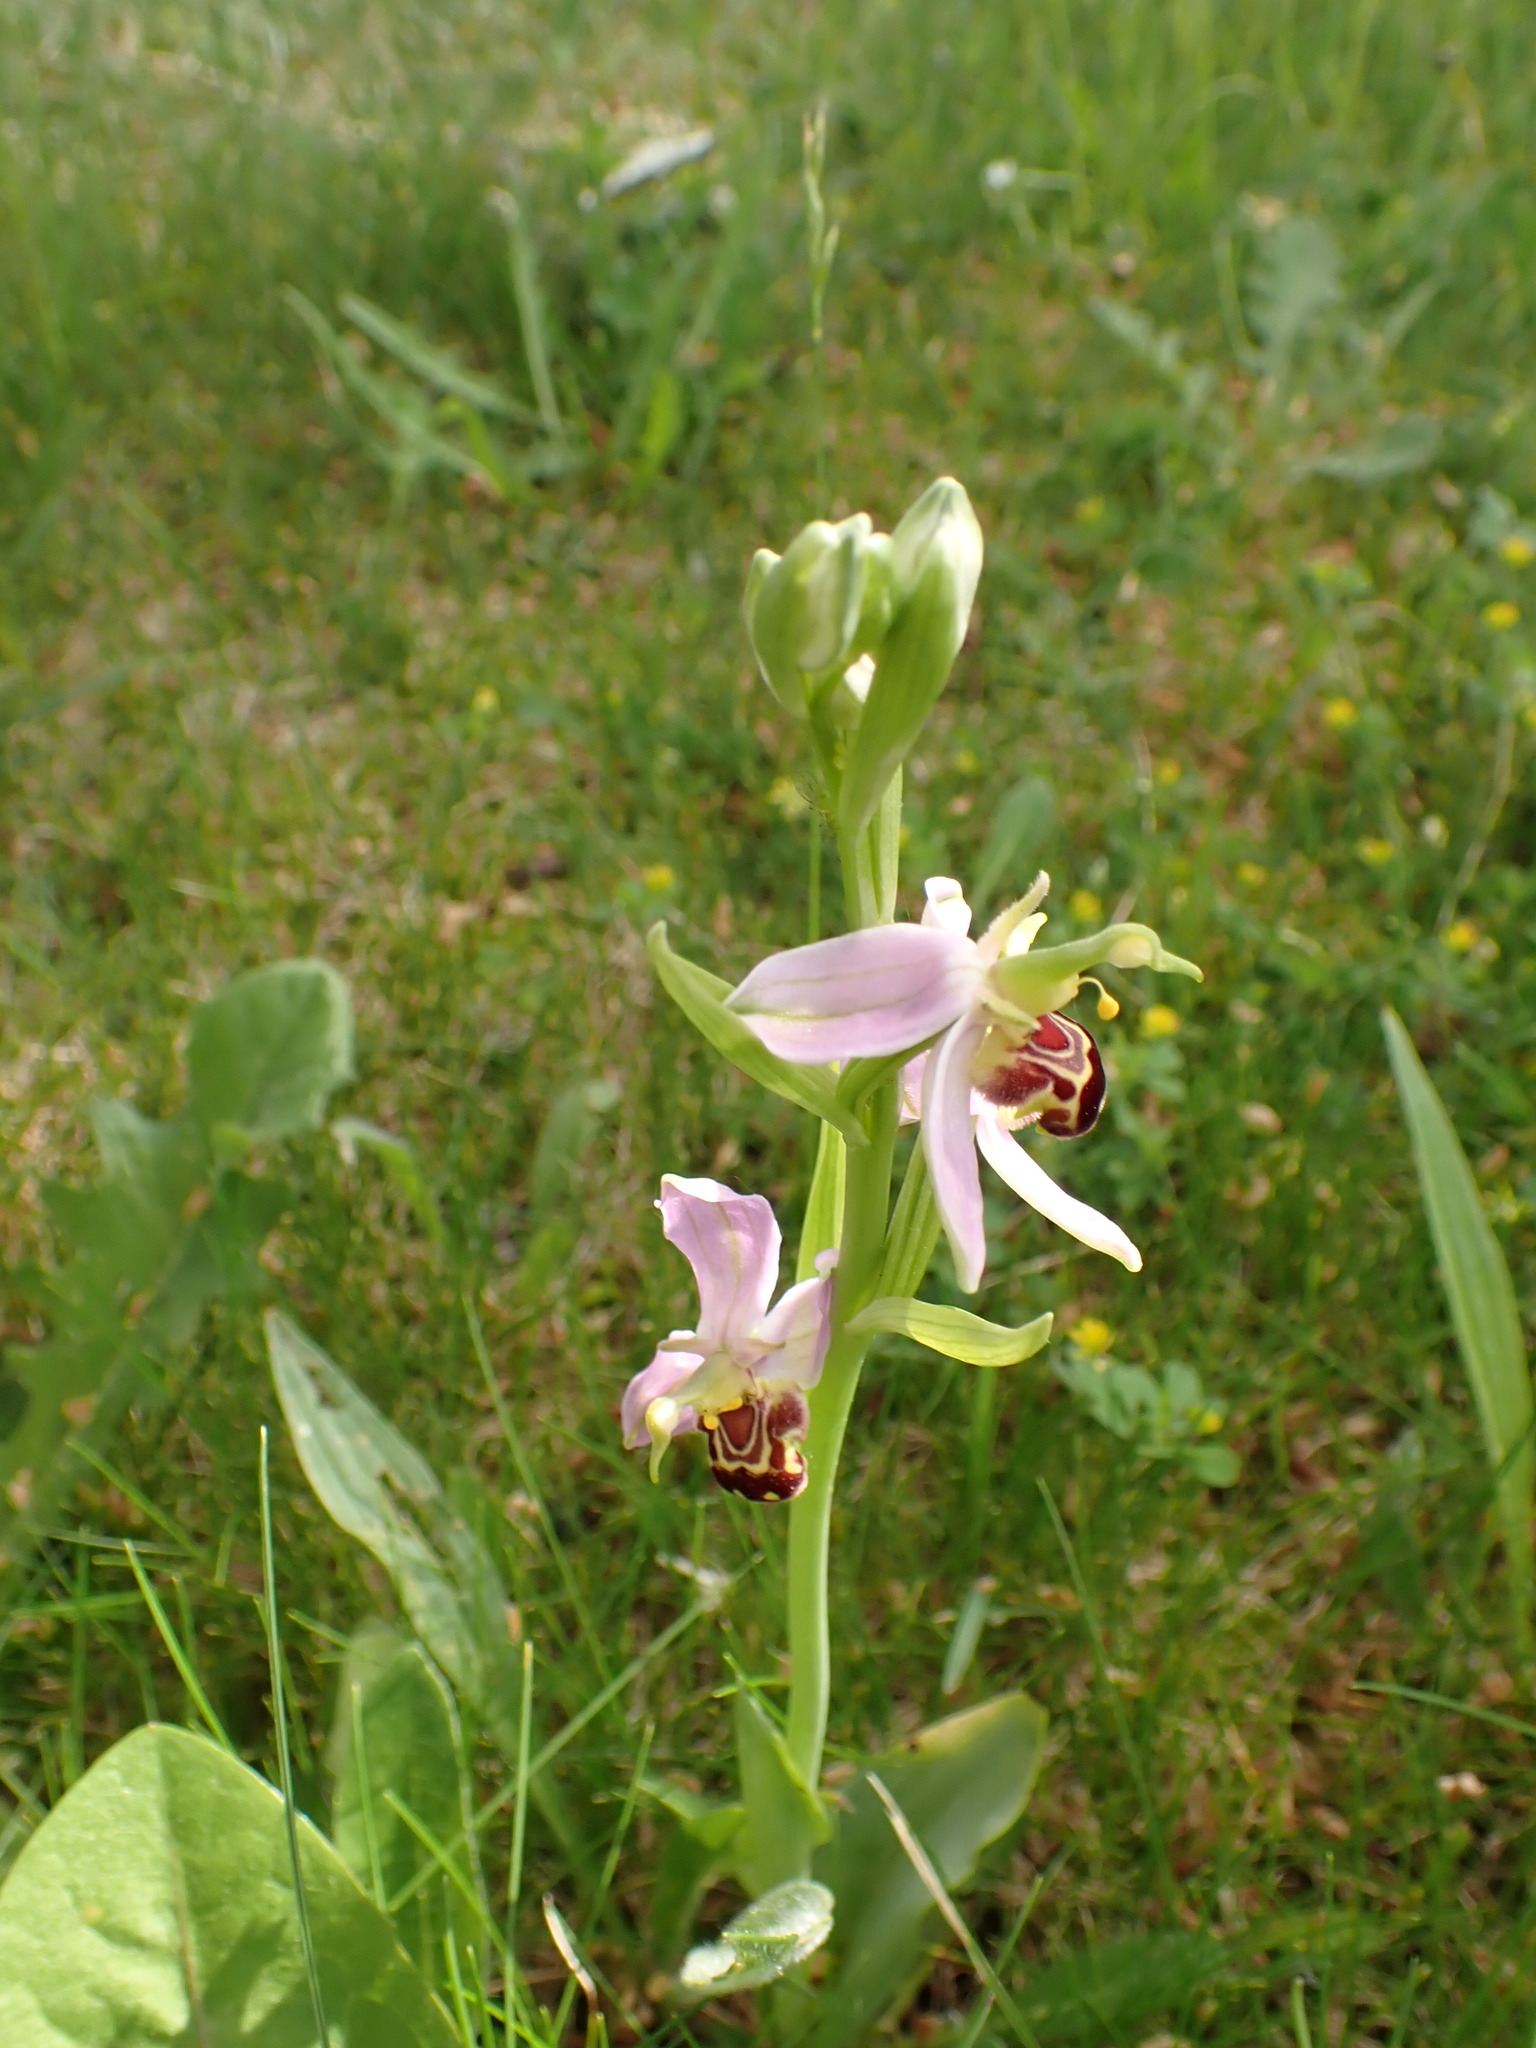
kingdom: Plantae
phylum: Tracheophyta
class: Liliopsida
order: Asparagales
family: Orchidaceae
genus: Ophrys
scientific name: Ophrys apifera
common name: Bee orchid
